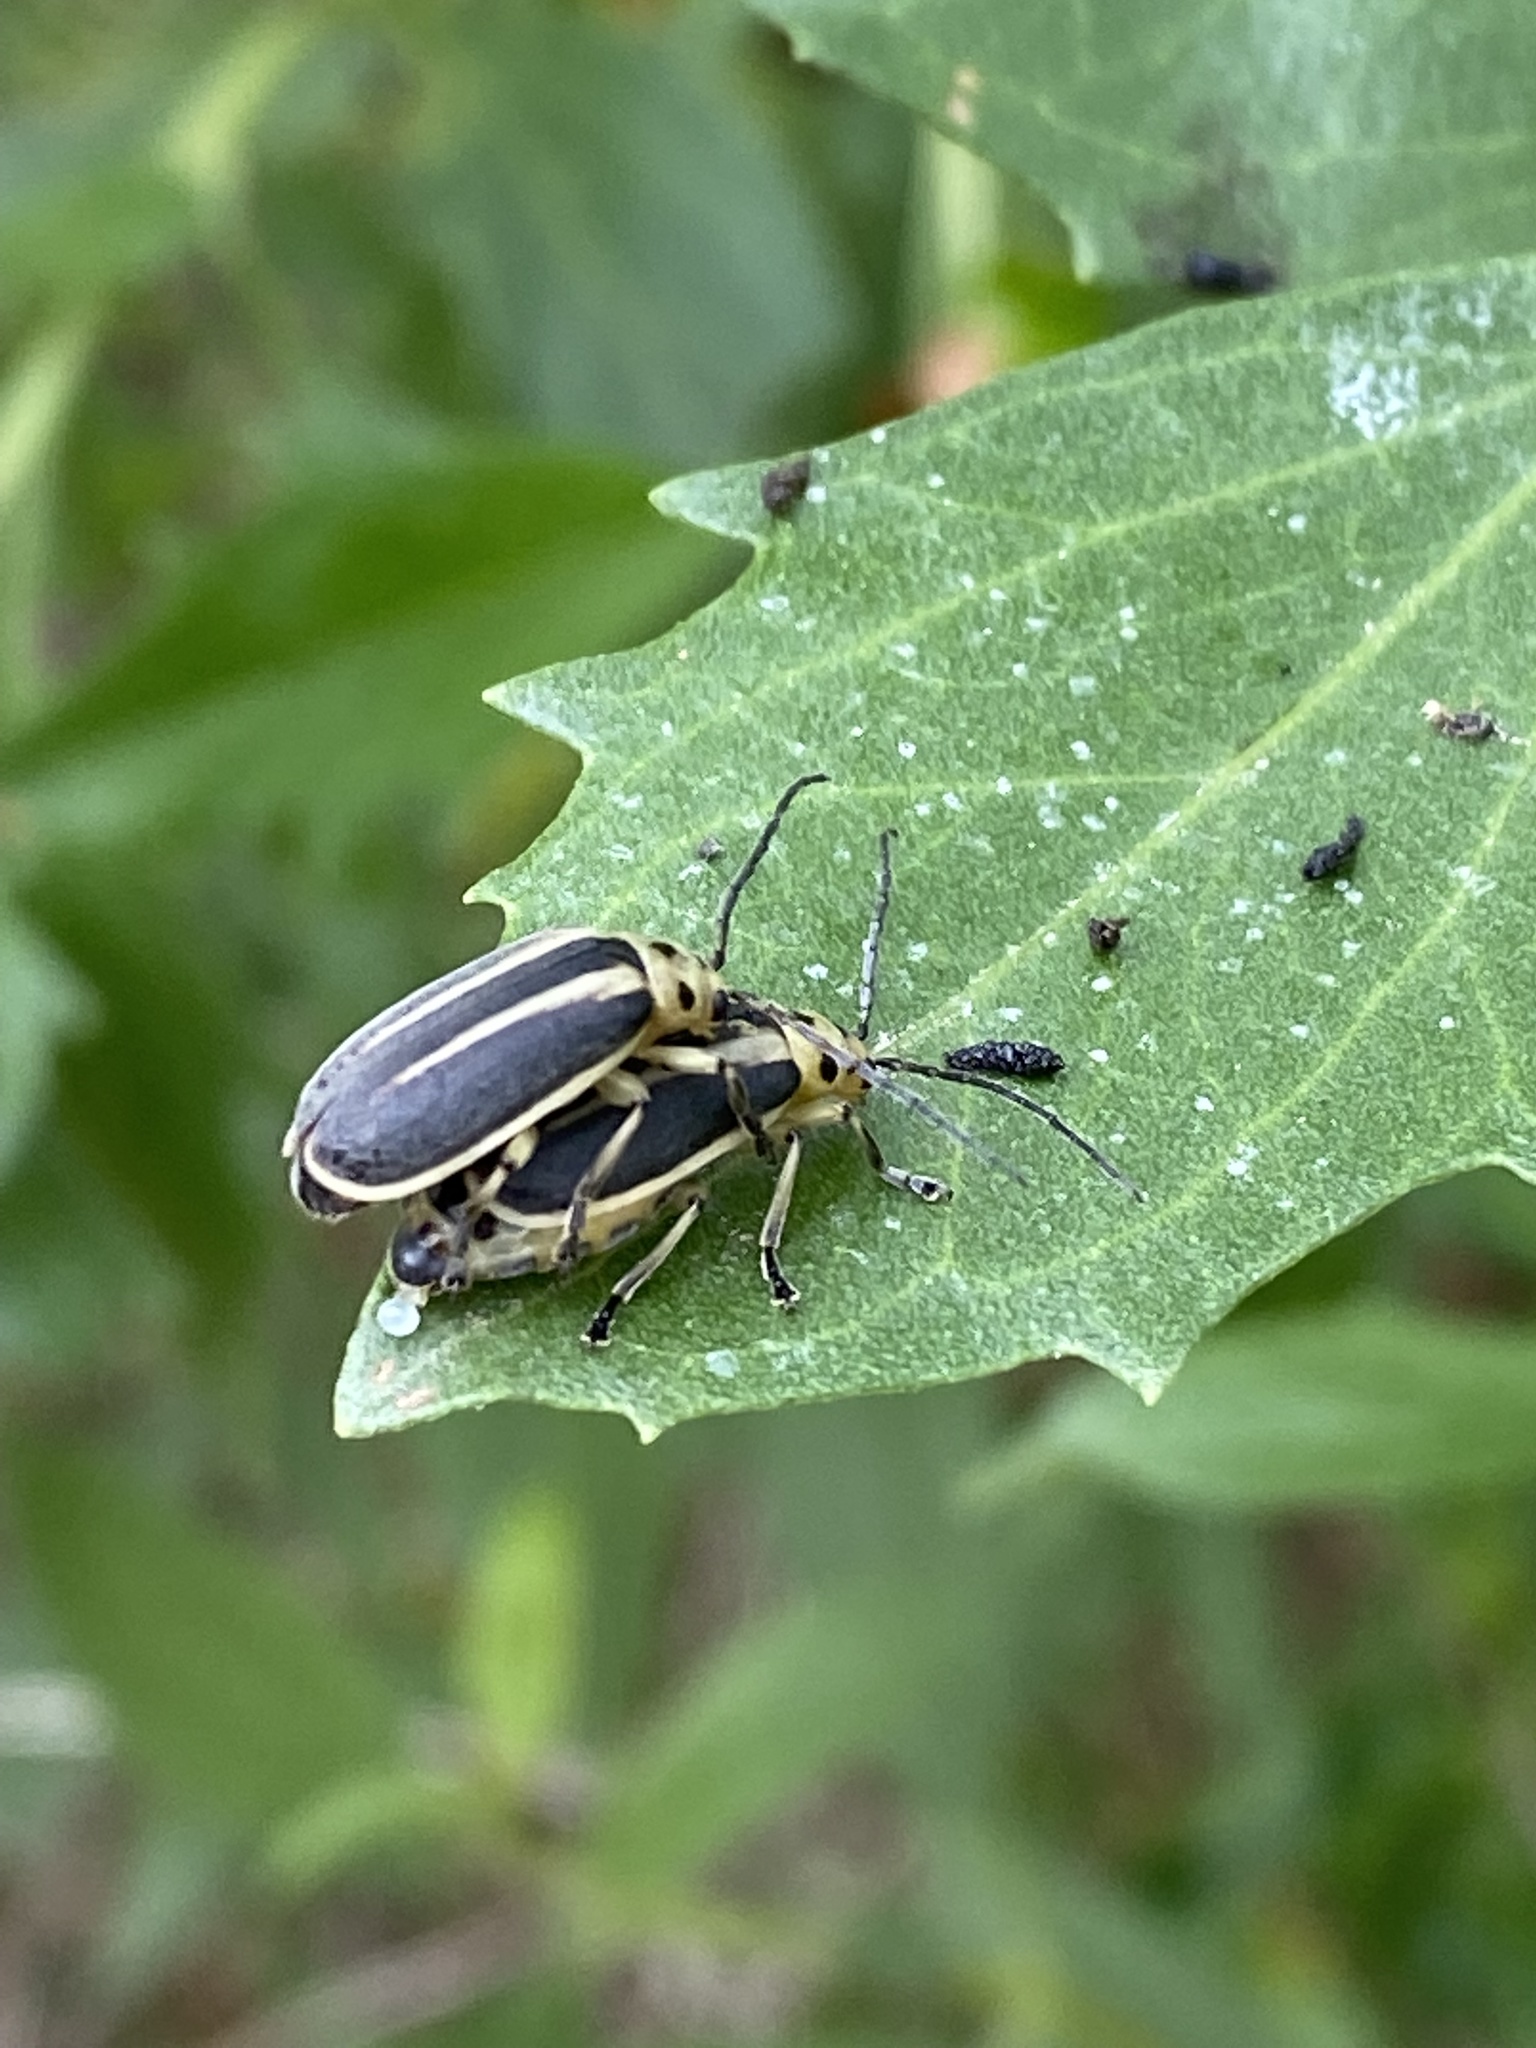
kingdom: Animalia
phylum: Arthropoda
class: Insecta
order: Coleoptera
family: Chrysomelidae
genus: Trirhabda
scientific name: Trirhabda bacharidis
